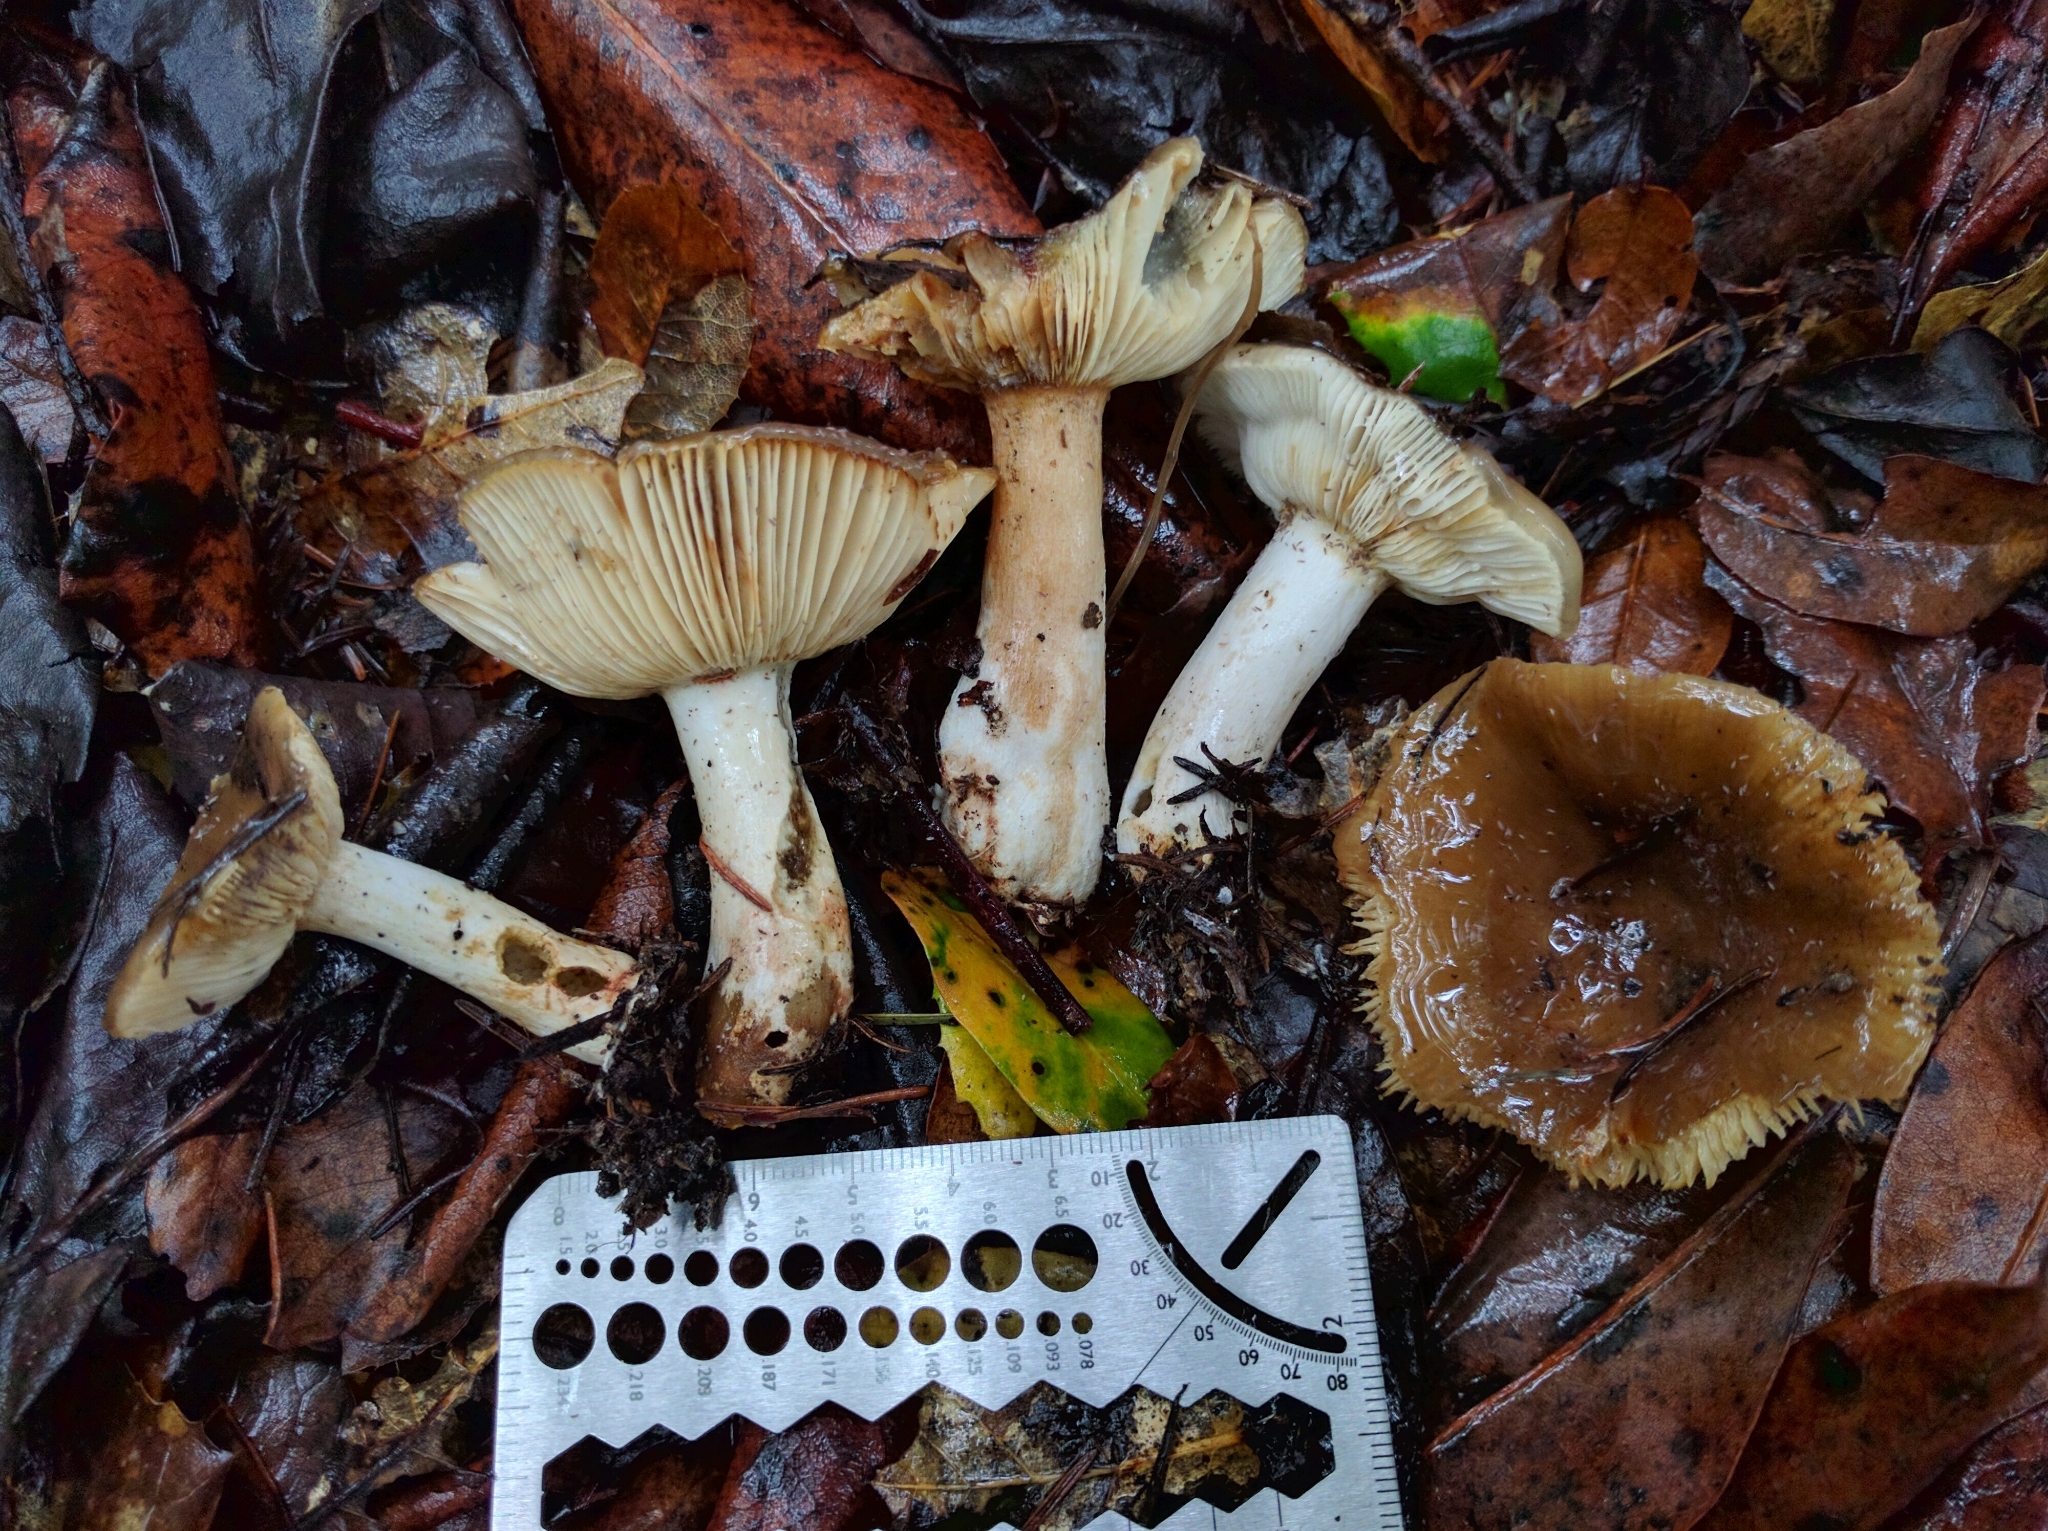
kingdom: Fungi
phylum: Basidiomycota
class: Agaricomycetes
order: Russulales
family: Russulaceae
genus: Russula
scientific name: Russula cerolens
